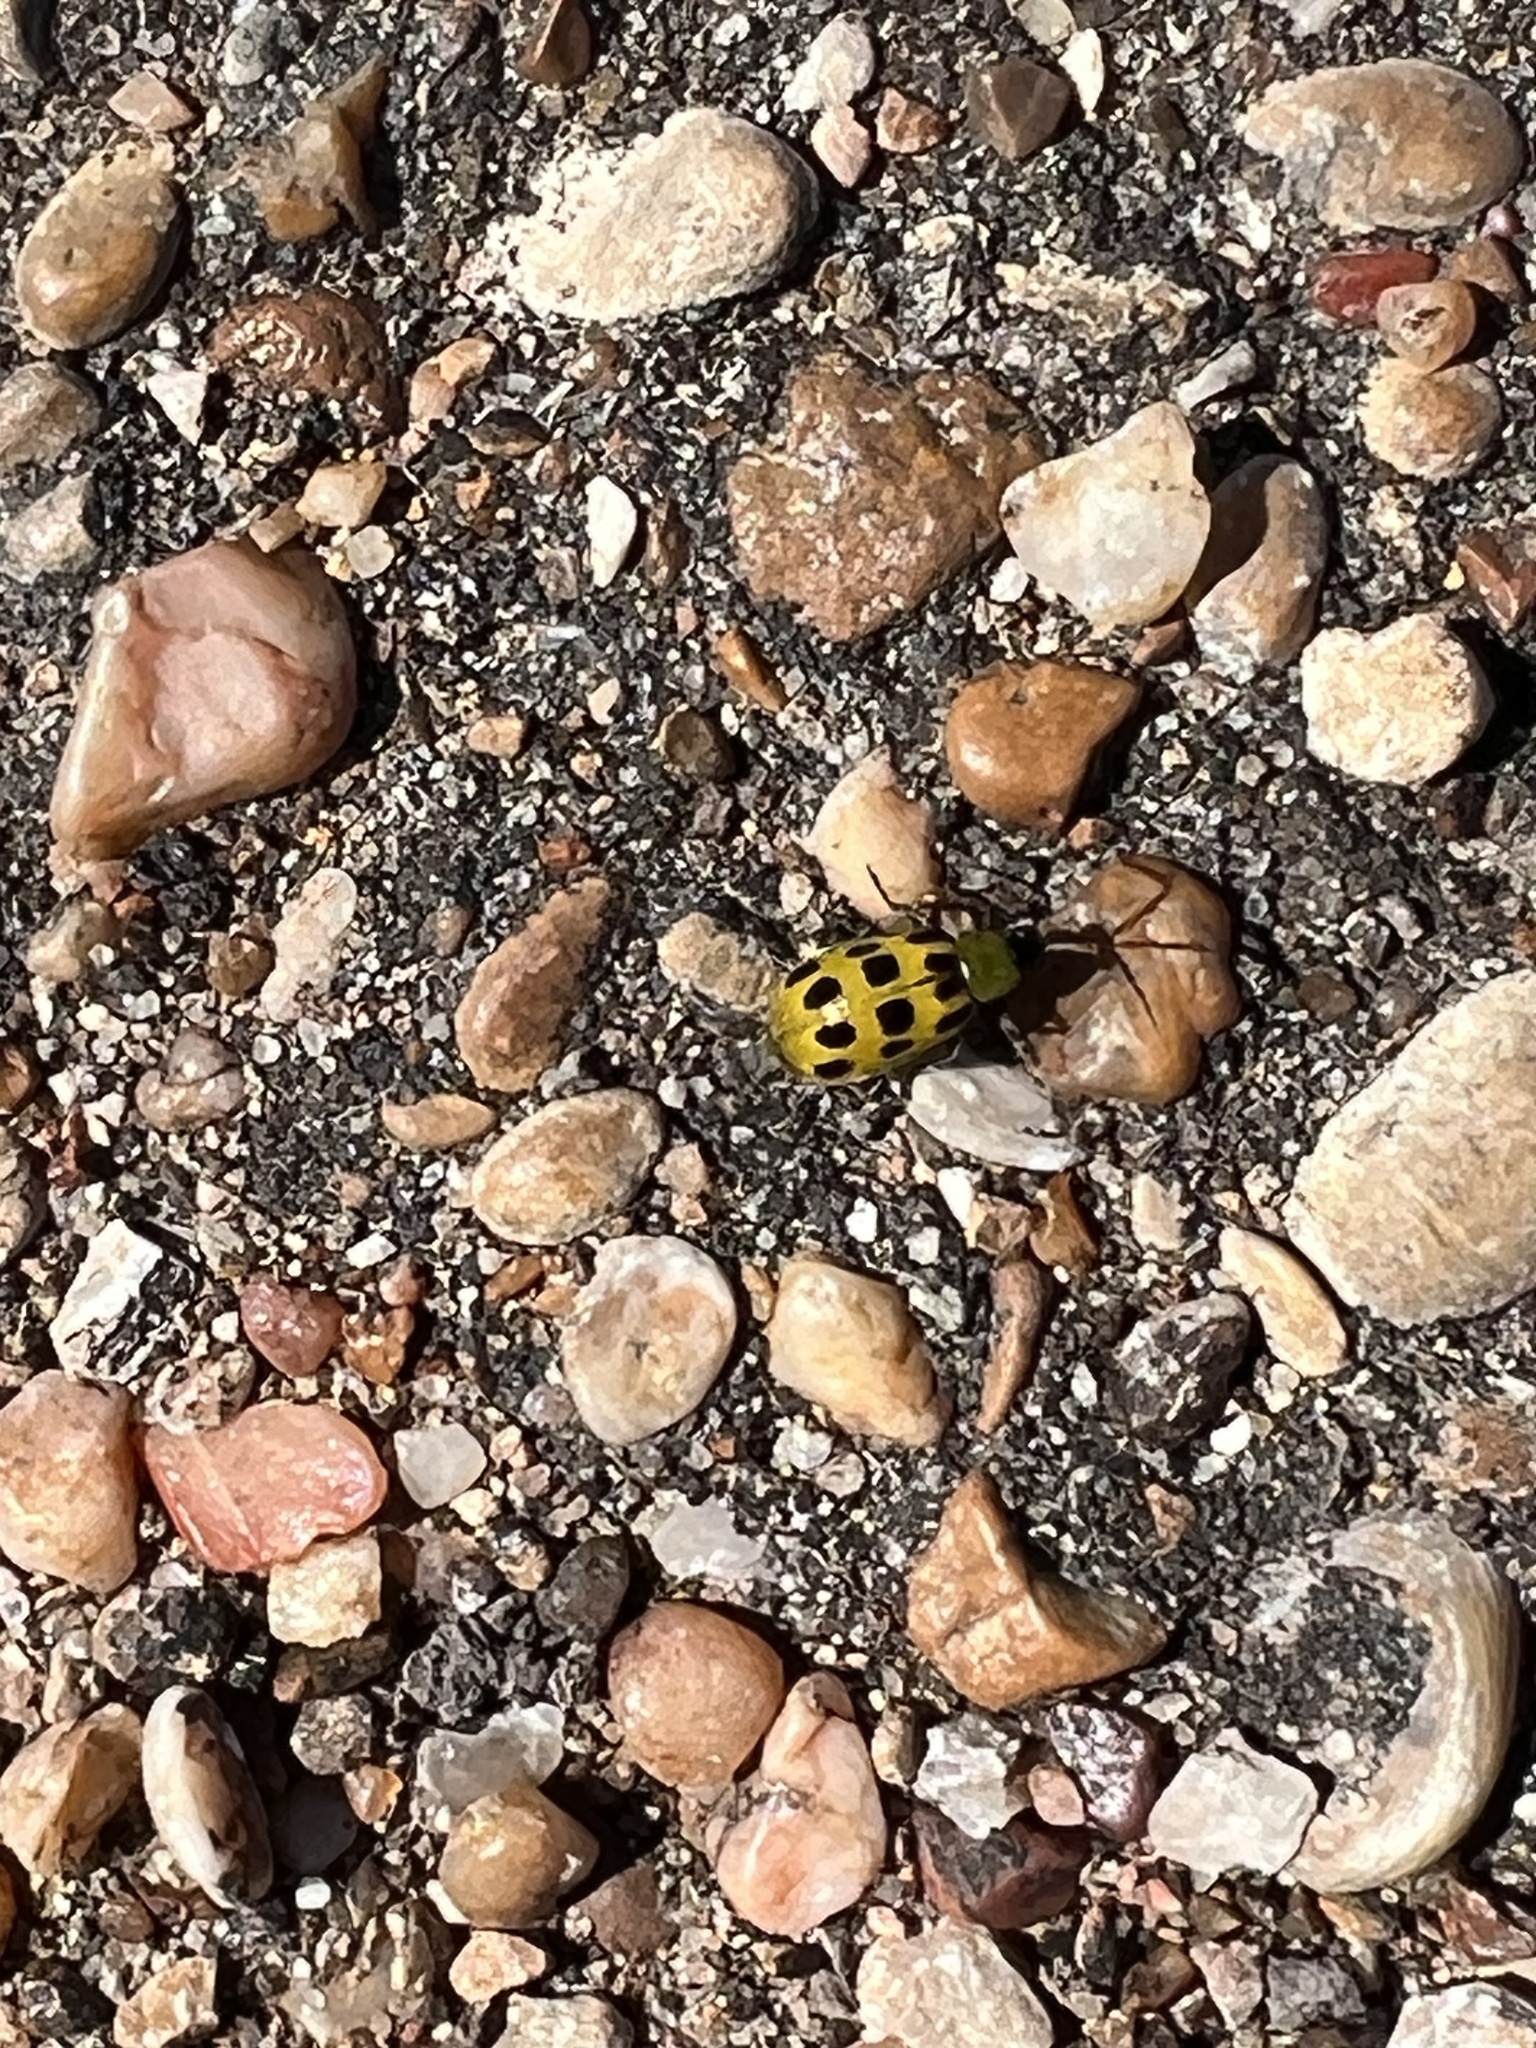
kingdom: Animalia
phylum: Arthropoda
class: Insecta
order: Coleoptera
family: Chrysomelidae
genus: Diabrotica
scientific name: Diabrotica undecimpunctata
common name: Spotted cucumber beetle
